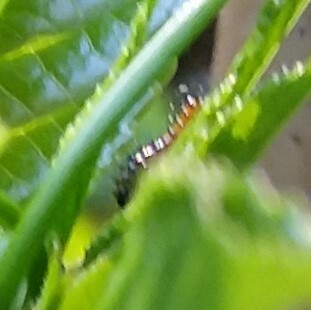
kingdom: Animalia
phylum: Arthropoda
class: Insecta
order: Lepidoptera
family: Nymphalidae
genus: Heliconius
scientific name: Heliconius charithonia
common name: Zebra long wing
